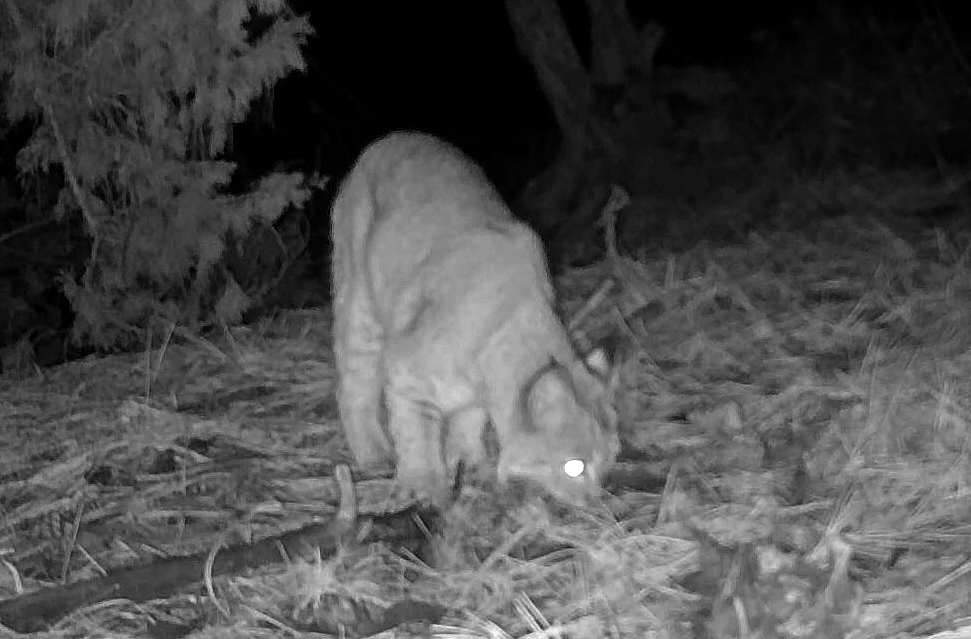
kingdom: Animalia
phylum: Chordata
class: Mammalia
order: Carnivora
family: Felidae
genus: Lynx
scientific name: Lynx rufus
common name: Bobcat
